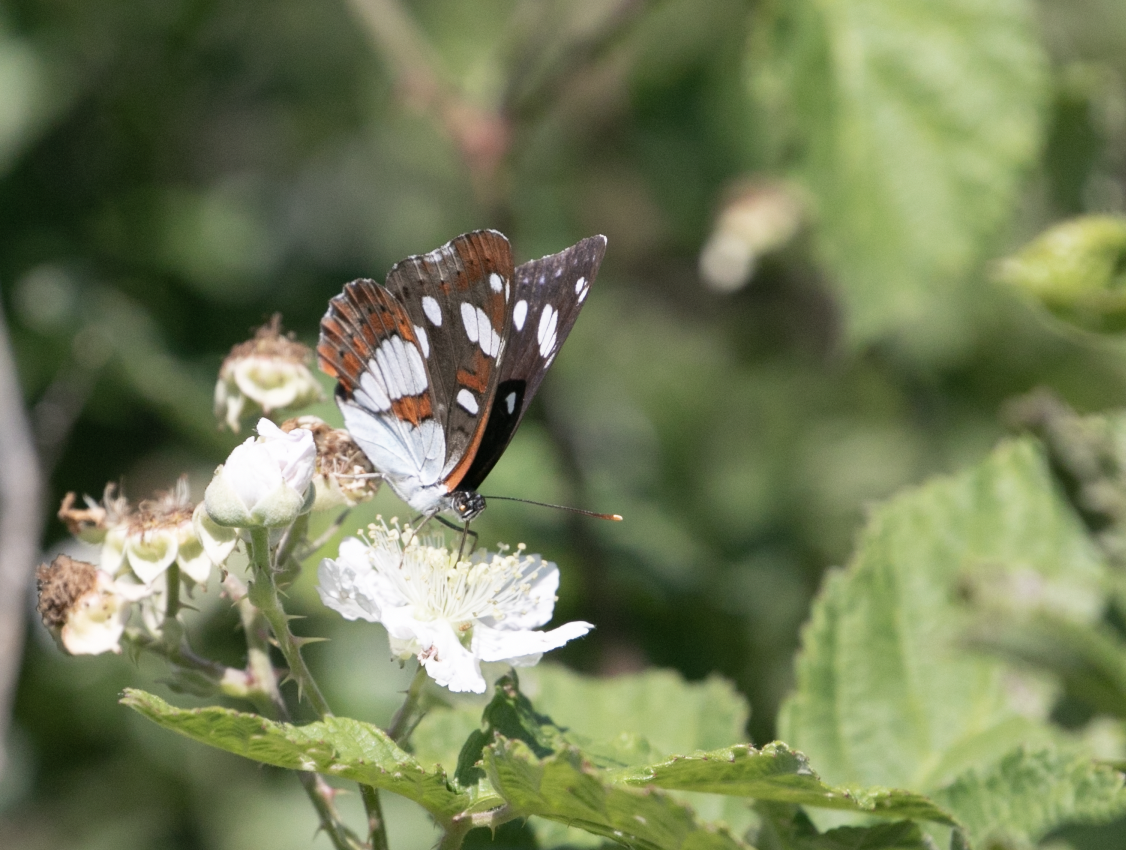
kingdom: Animalia
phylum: Arthropoda
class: Insecta
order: Lepidoptera
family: Nymphalidae
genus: Limenitis
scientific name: Limenitis reducta
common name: Southern white admiral
